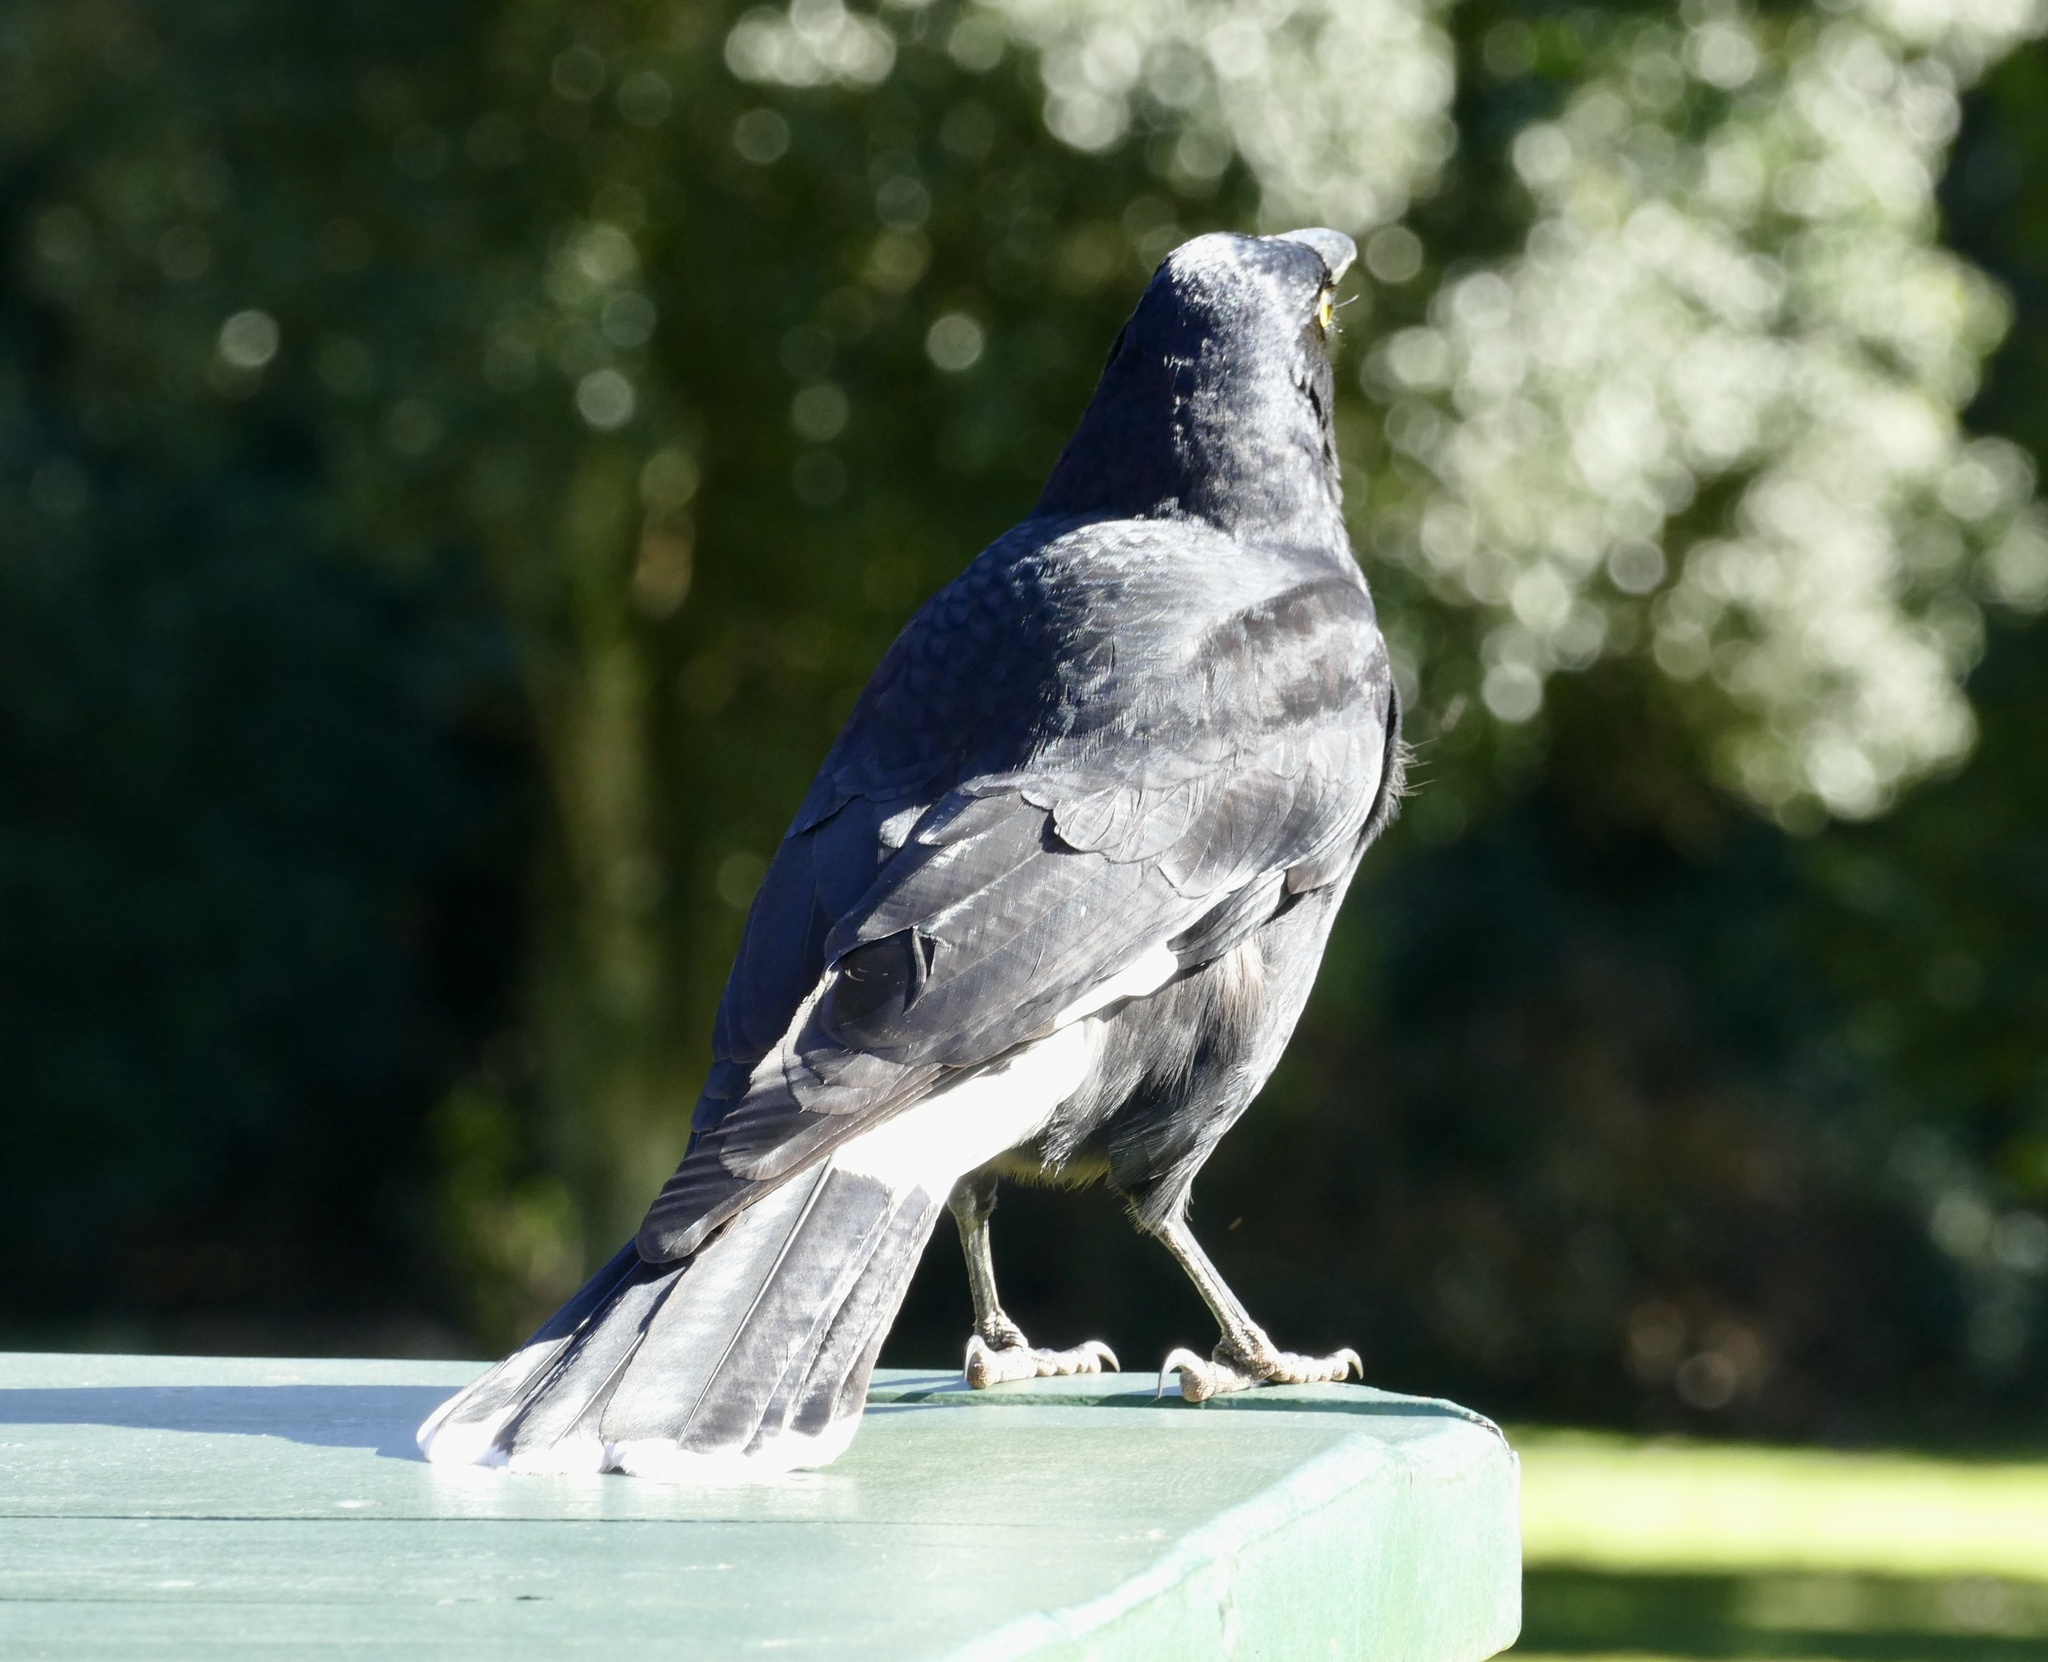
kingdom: Animalia
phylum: Chordata
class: Aves
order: Passeriformes
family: Cracticidae
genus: Strepera
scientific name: Strepera graculina
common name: Pied currawong
